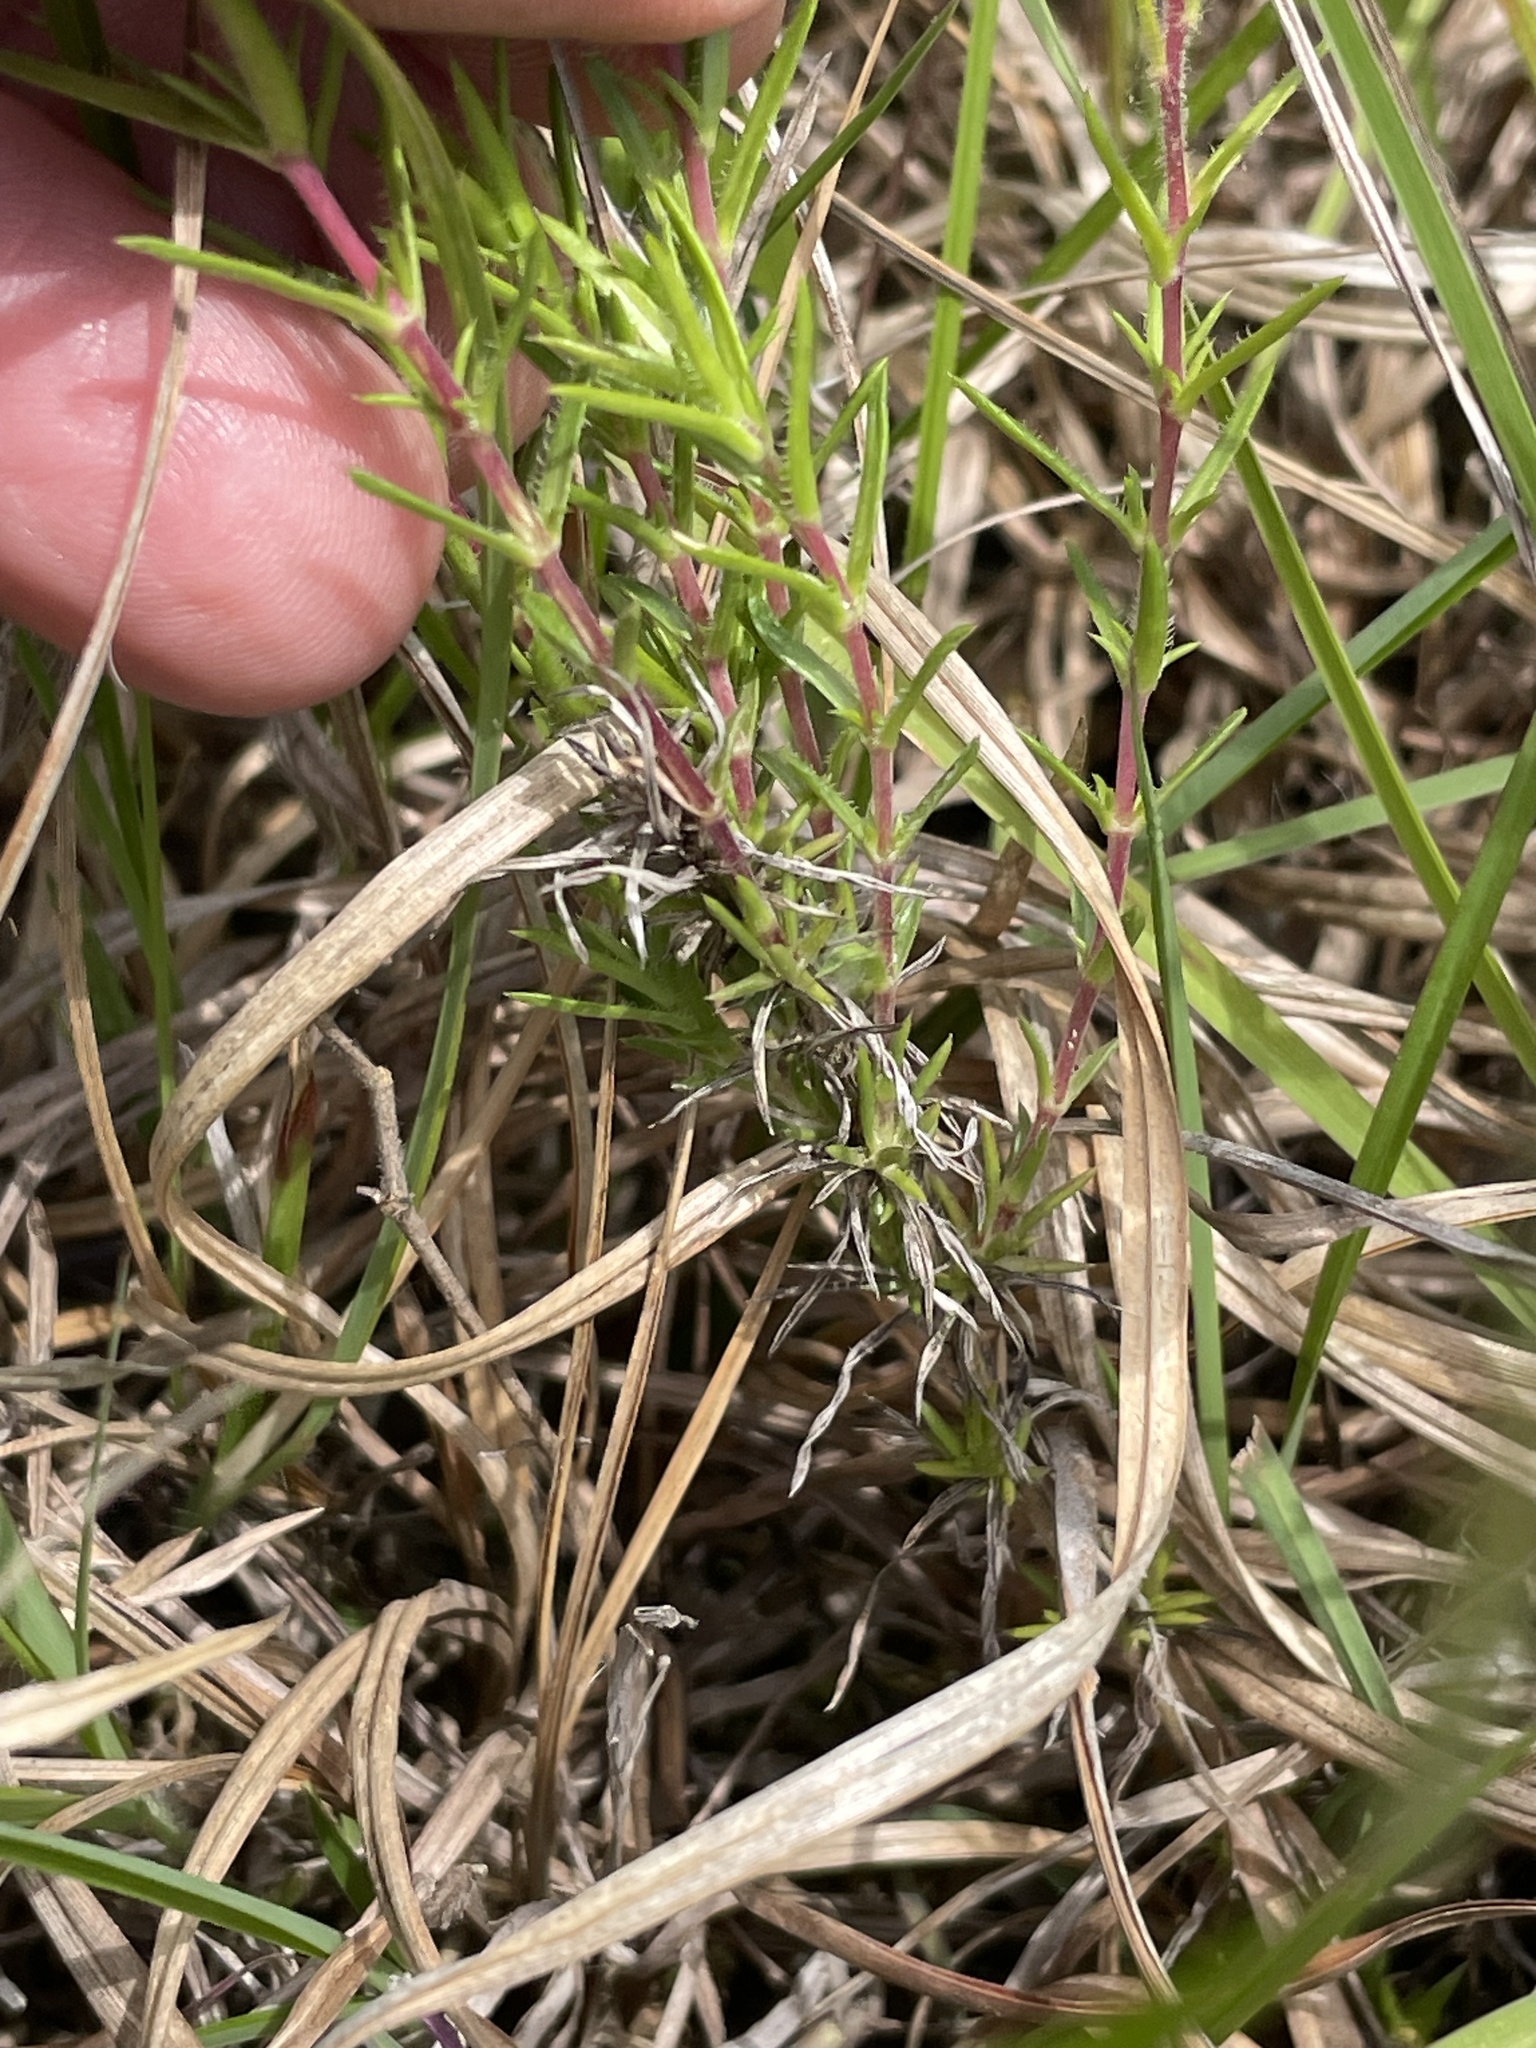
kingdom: Plantae
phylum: Tracheophyta
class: Magnoliopsida
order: Ericales
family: Polemoniaceae
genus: Phlox
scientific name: Phlox nivalis
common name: Trailing phlox
